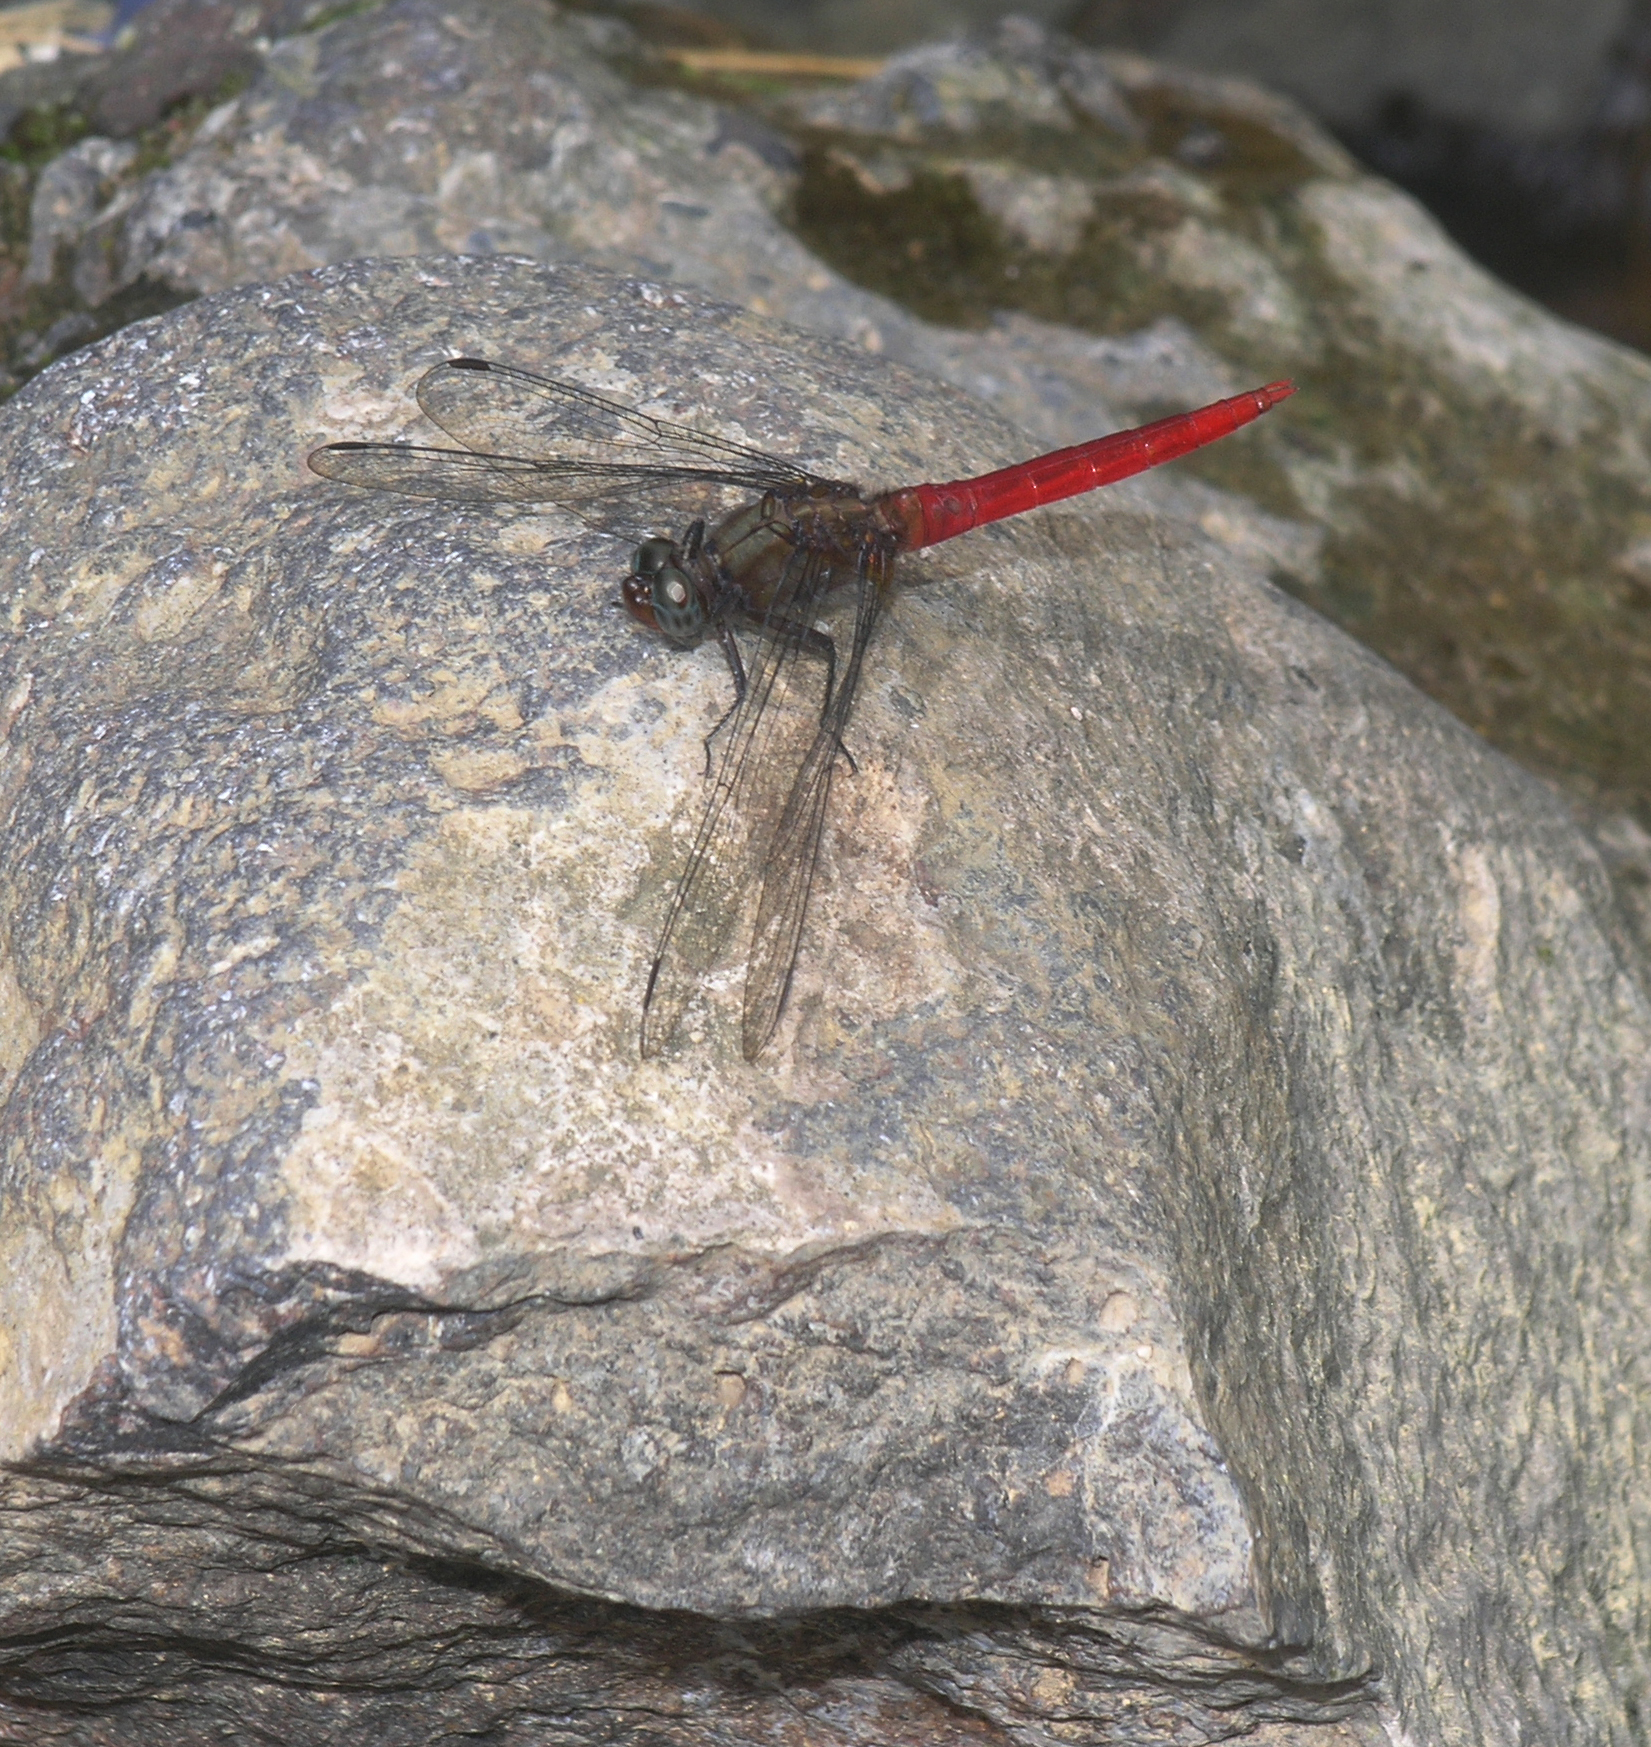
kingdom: Animalia
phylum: Arthropoda
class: Insecta
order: Odonata
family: Libellulidae
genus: Orthetrum
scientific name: Orthetrum chrysis
